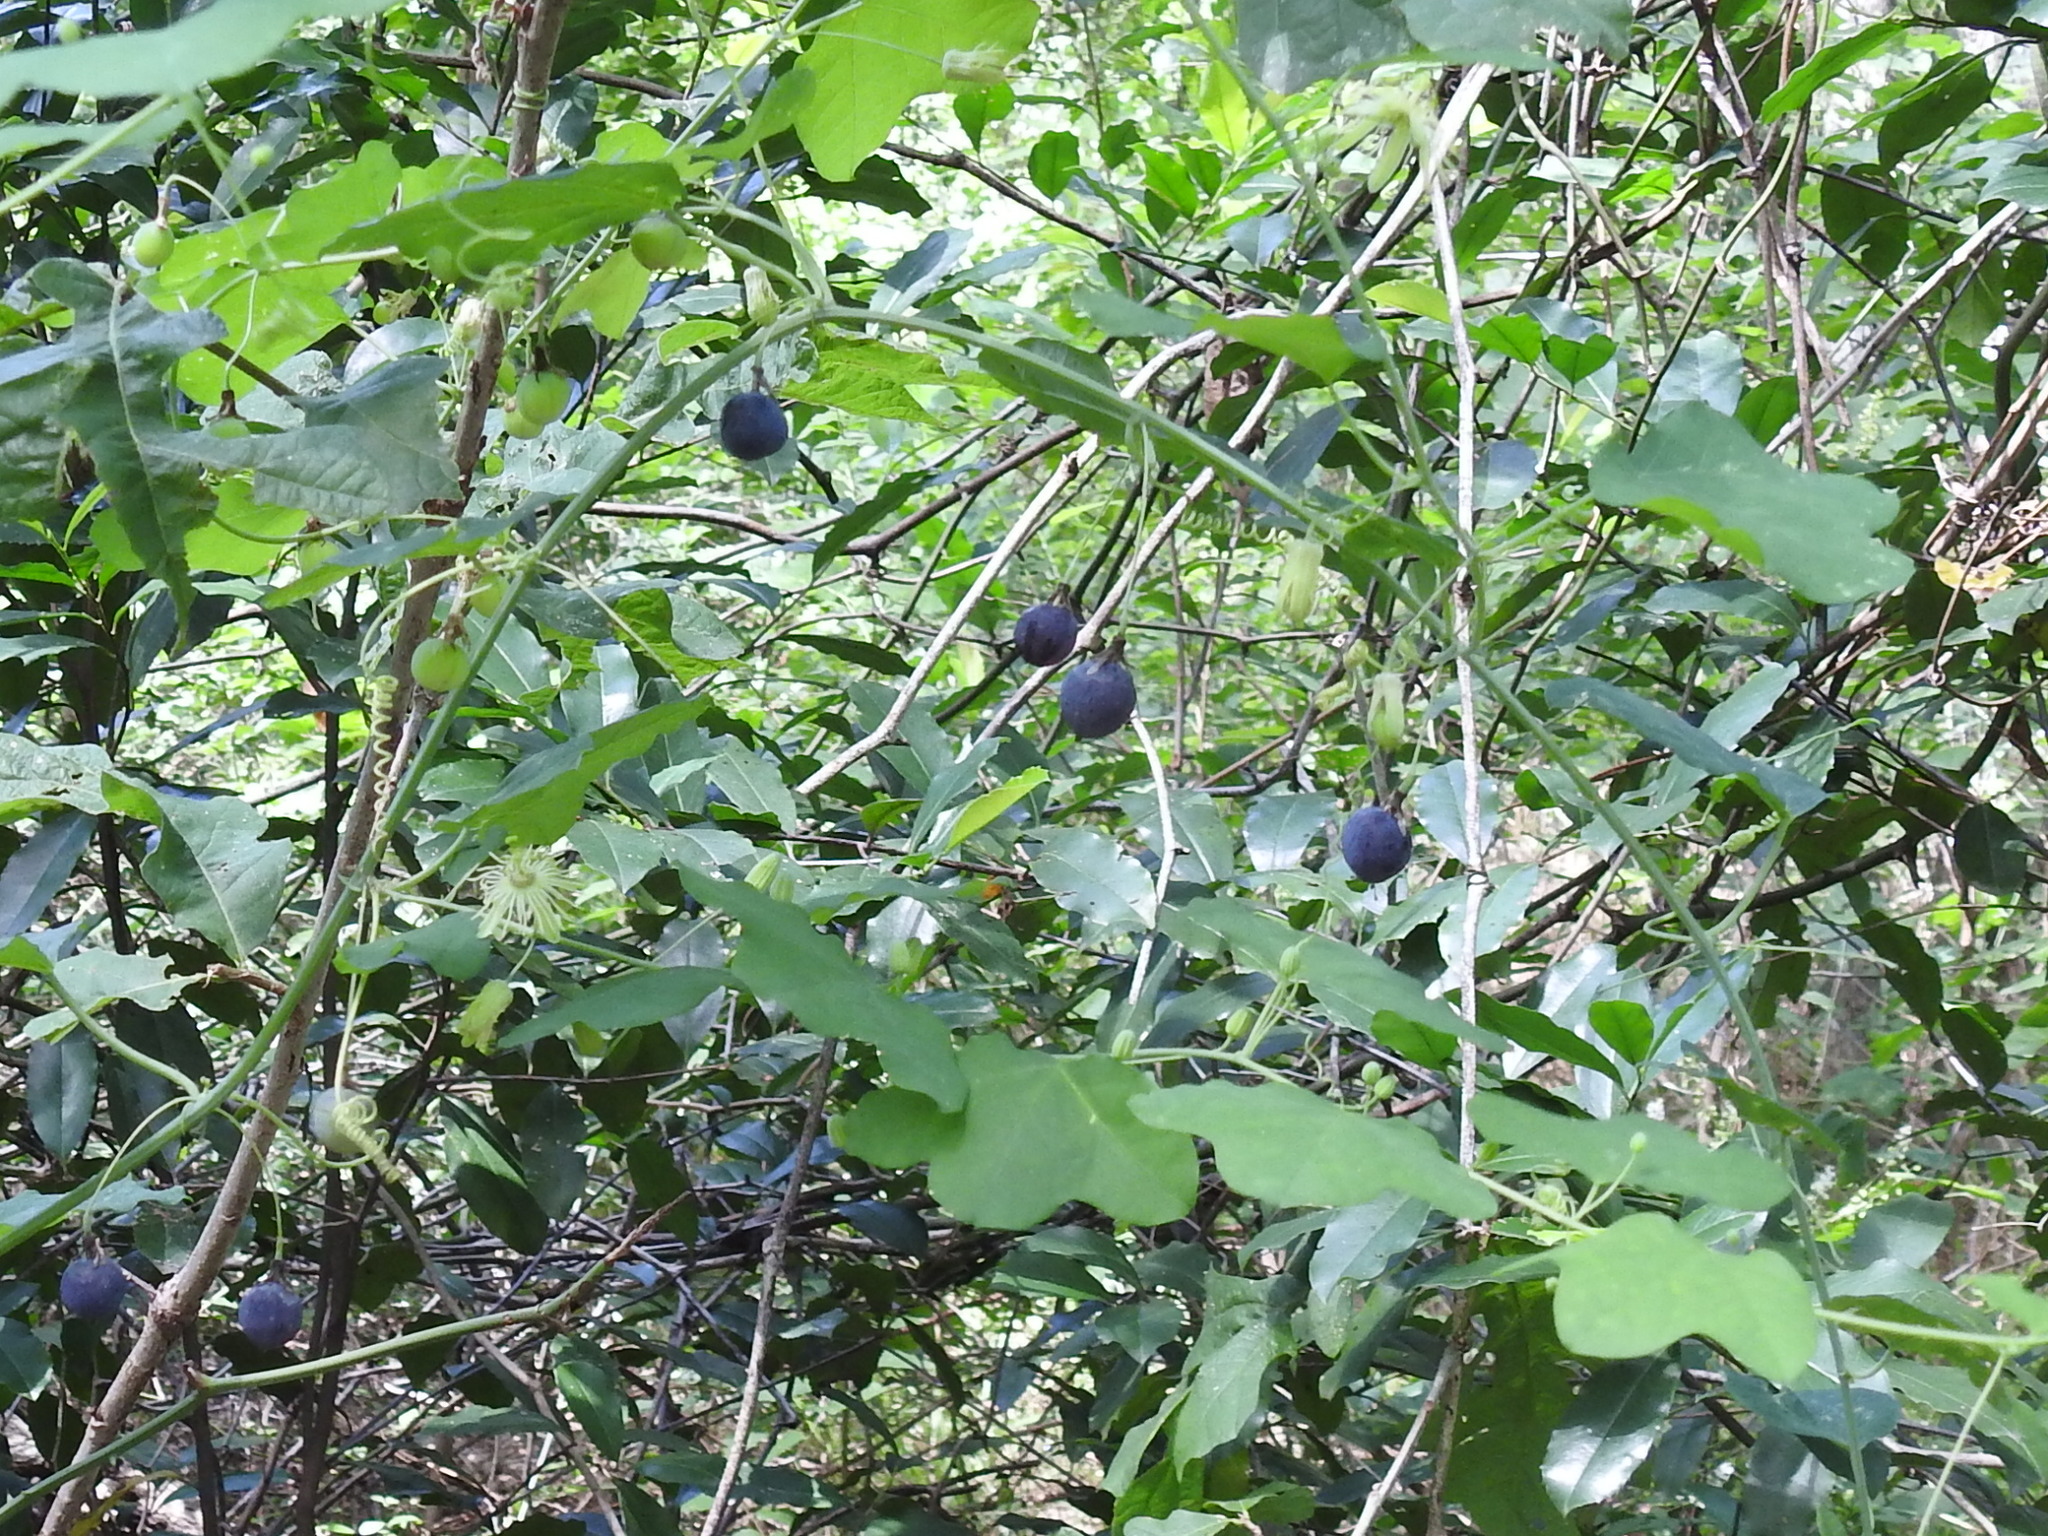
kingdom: Plantae
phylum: Tracheophyta
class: Magnoliopsida
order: Malpighiales
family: Passifloraceae
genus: Passiflora
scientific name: Passiflora lutea
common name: Yellow passionflower
